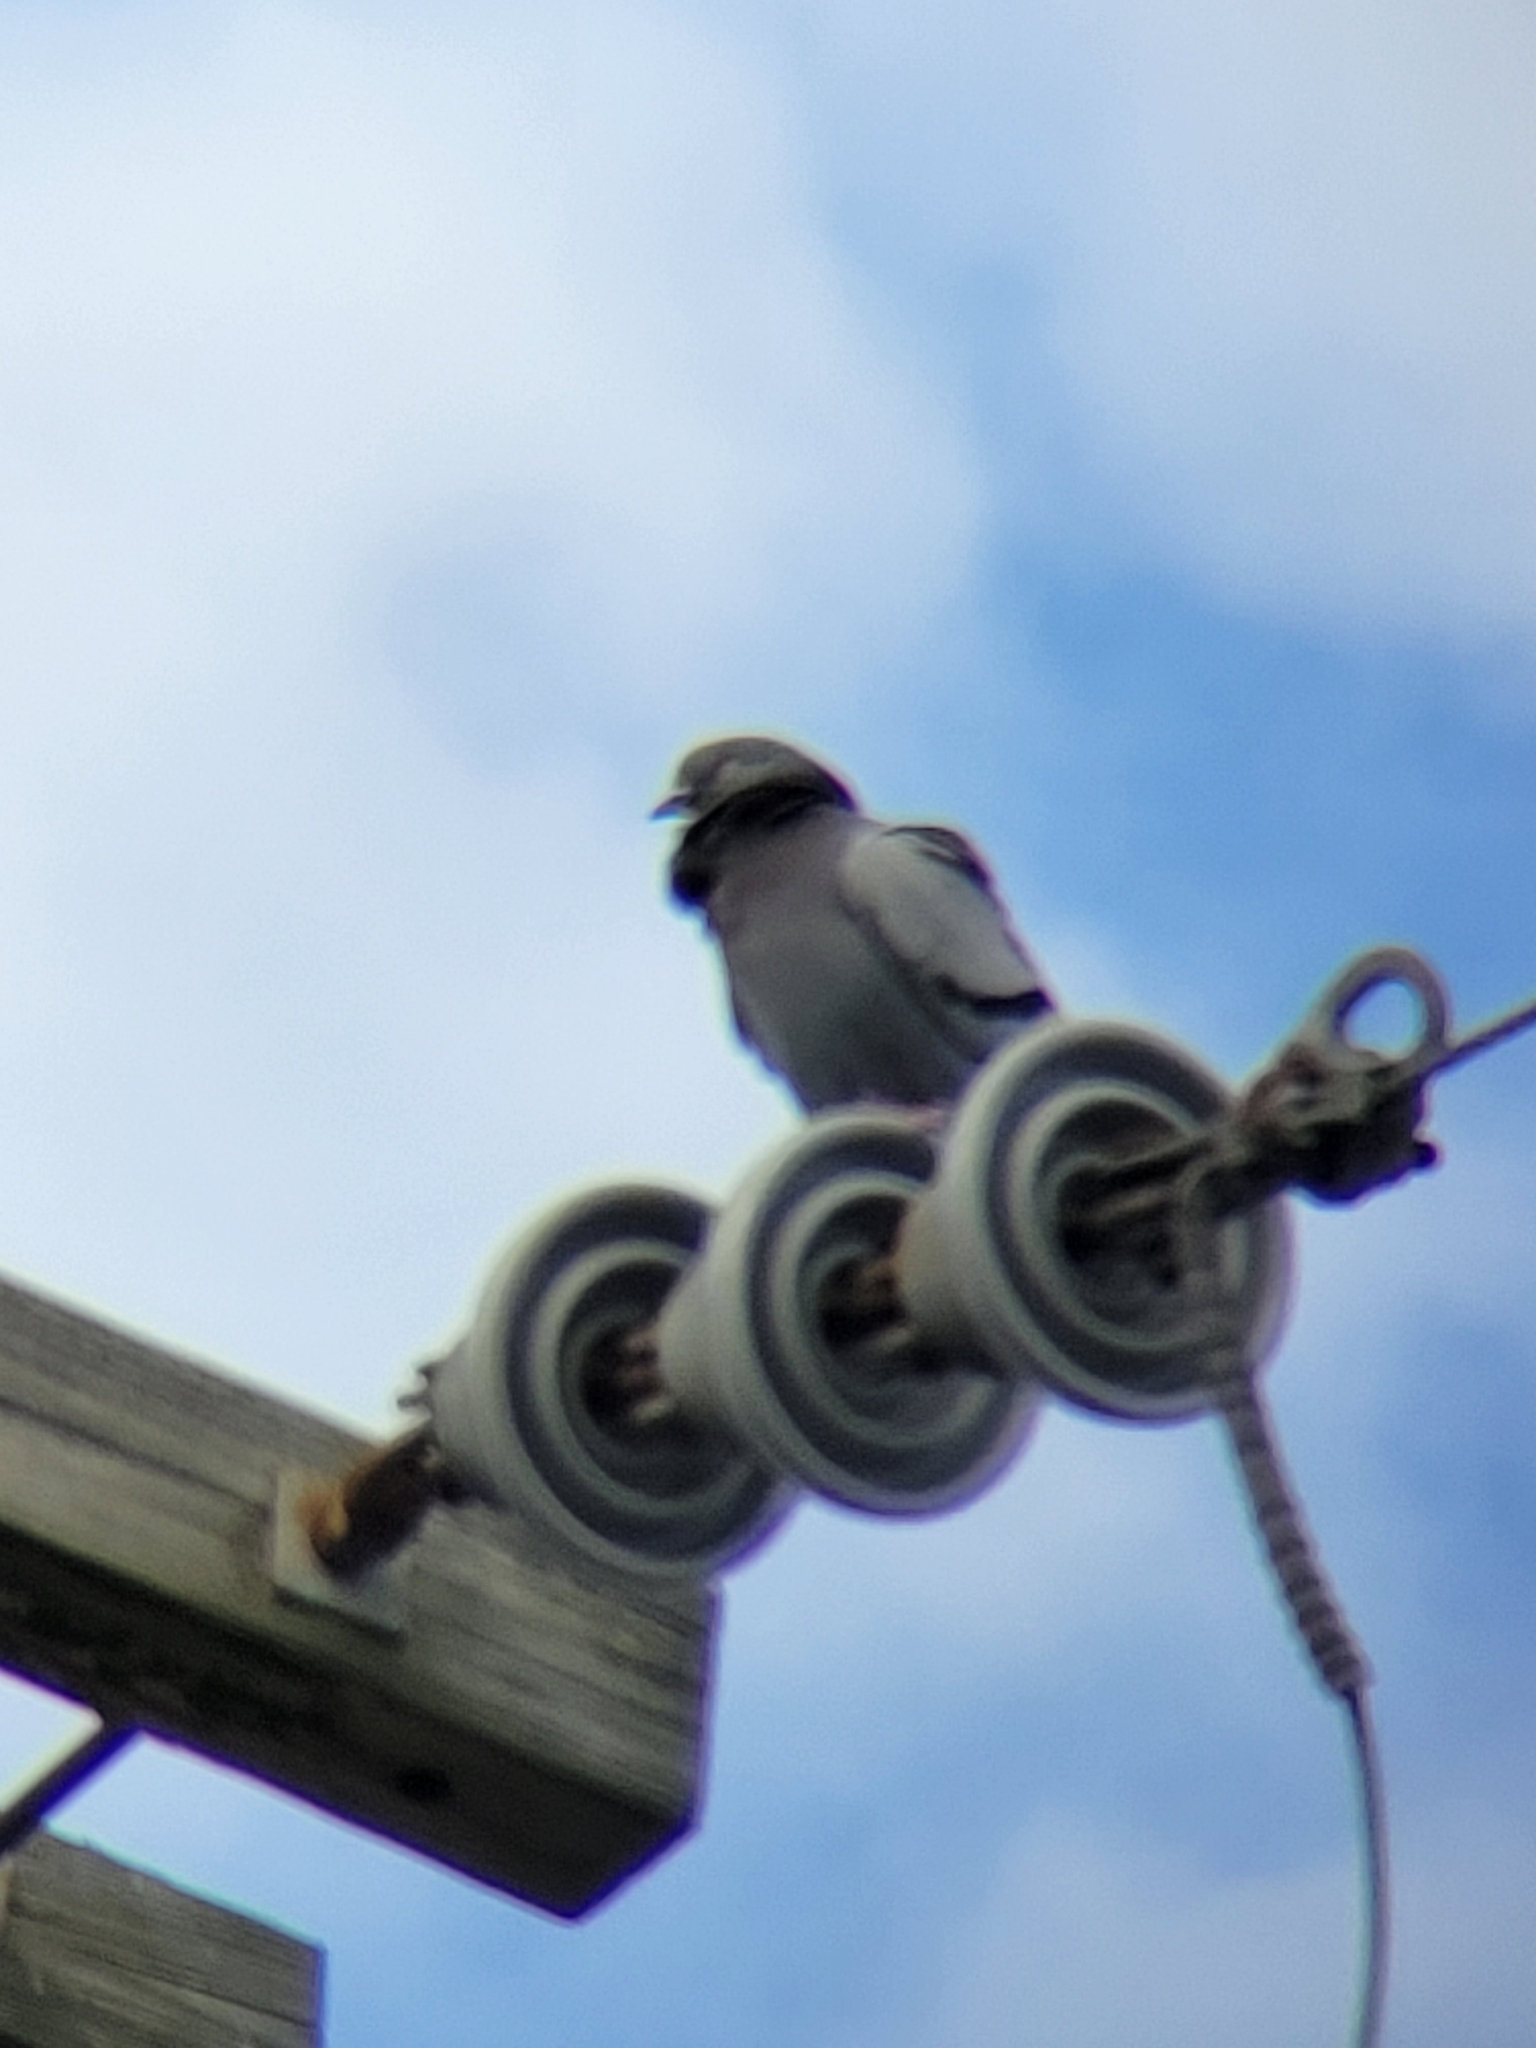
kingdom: Animalia
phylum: Chordata
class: Aves
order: Columbiformes
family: Columbidae
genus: Columba
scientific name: Columba livia
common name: Rock pigeon
